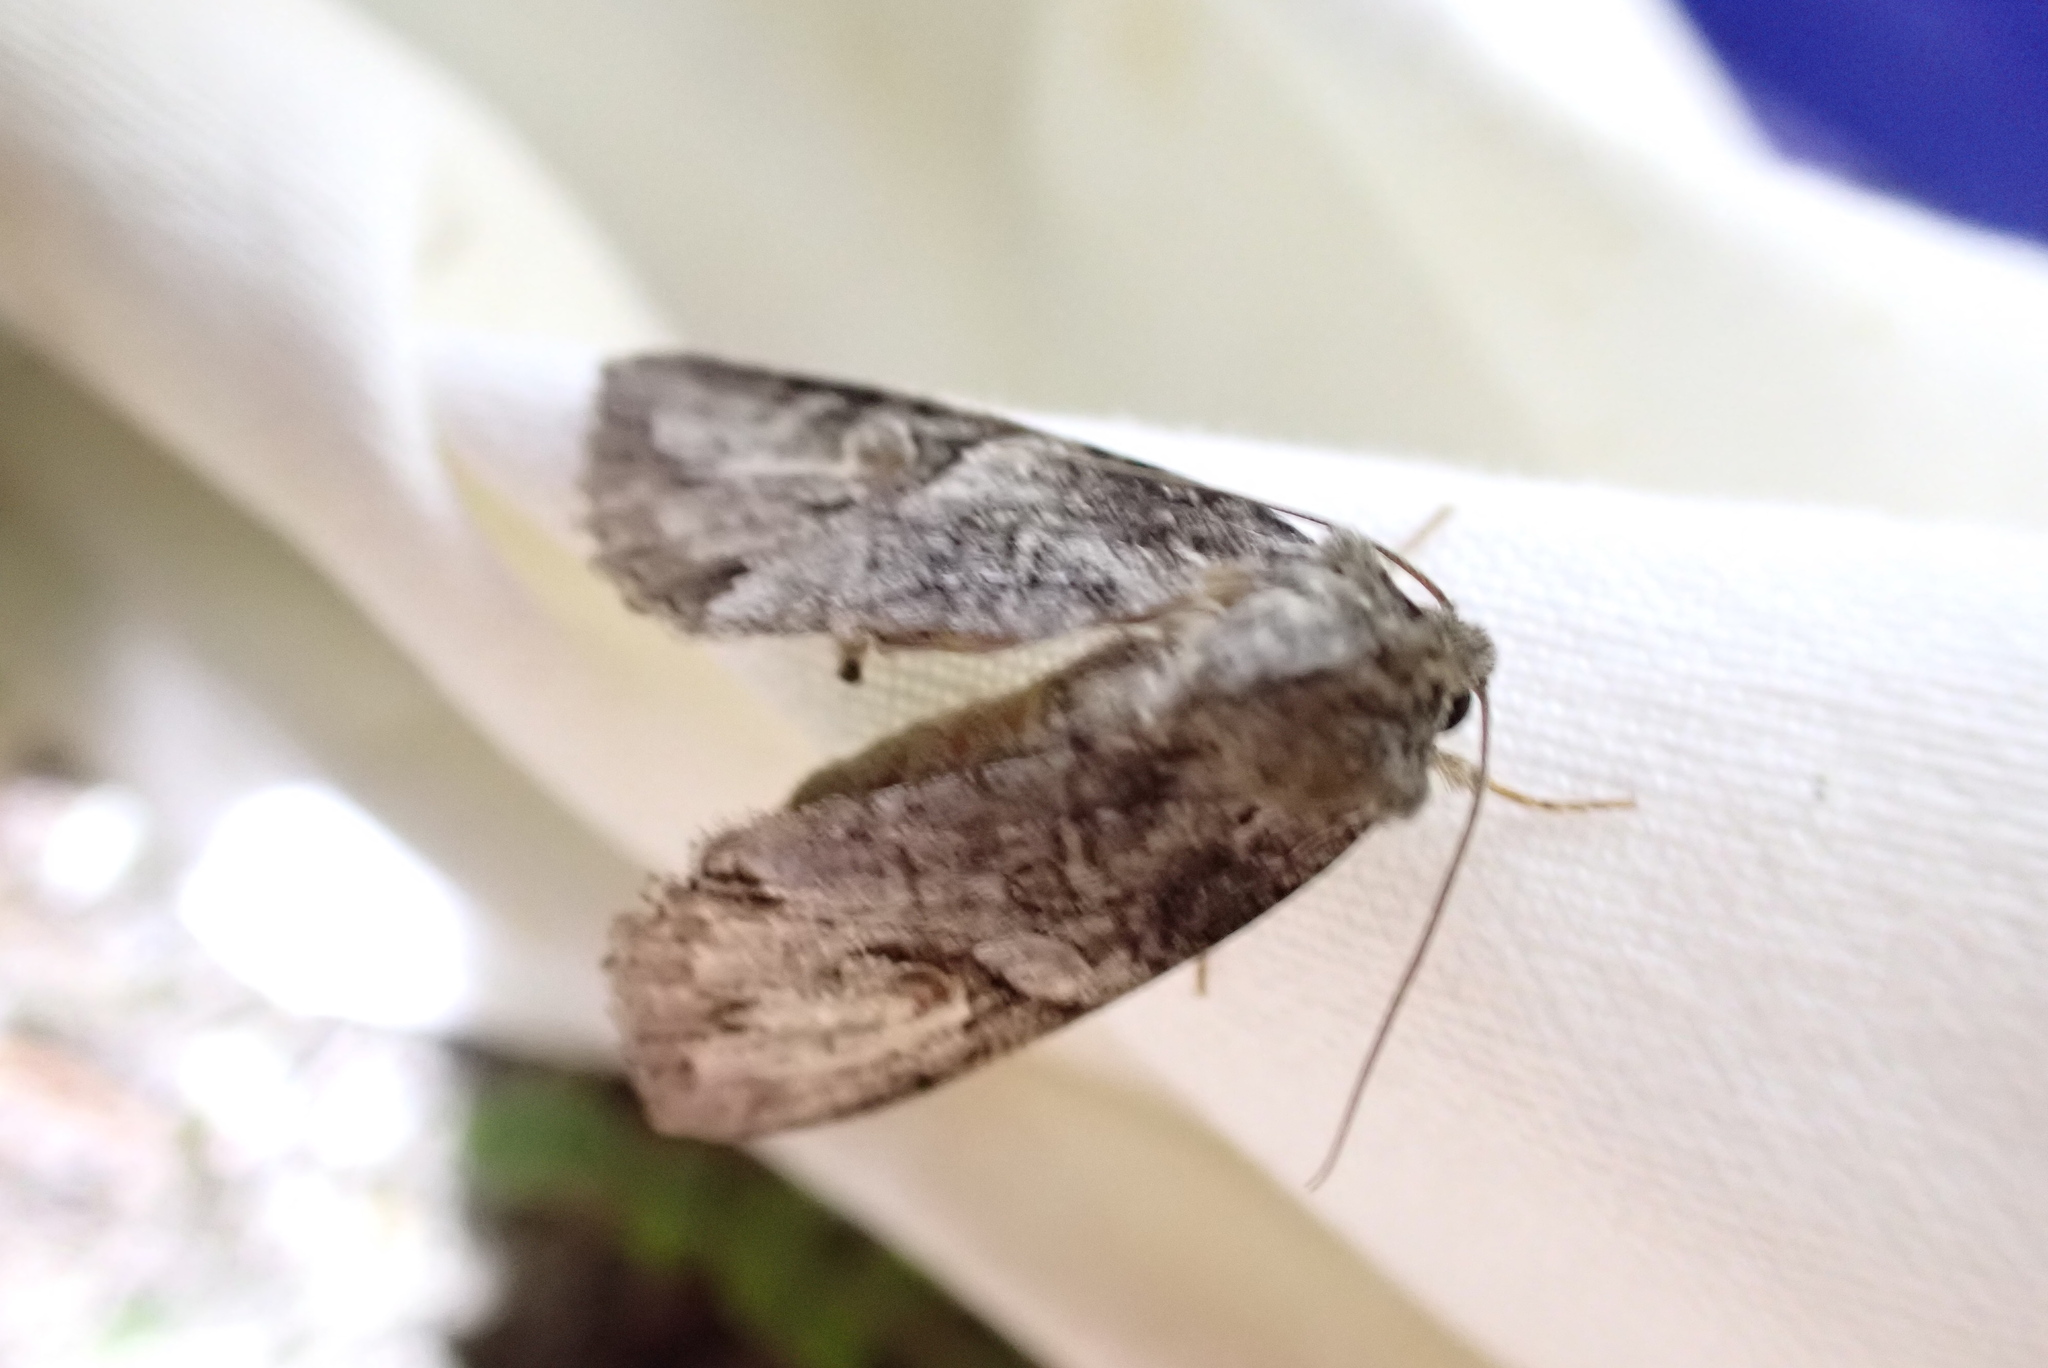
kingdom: Animalia
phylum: Arthropoda
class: Insecta
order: Lepidoptera
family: Noctuidae
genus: Achatia
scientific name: Achatia latex
